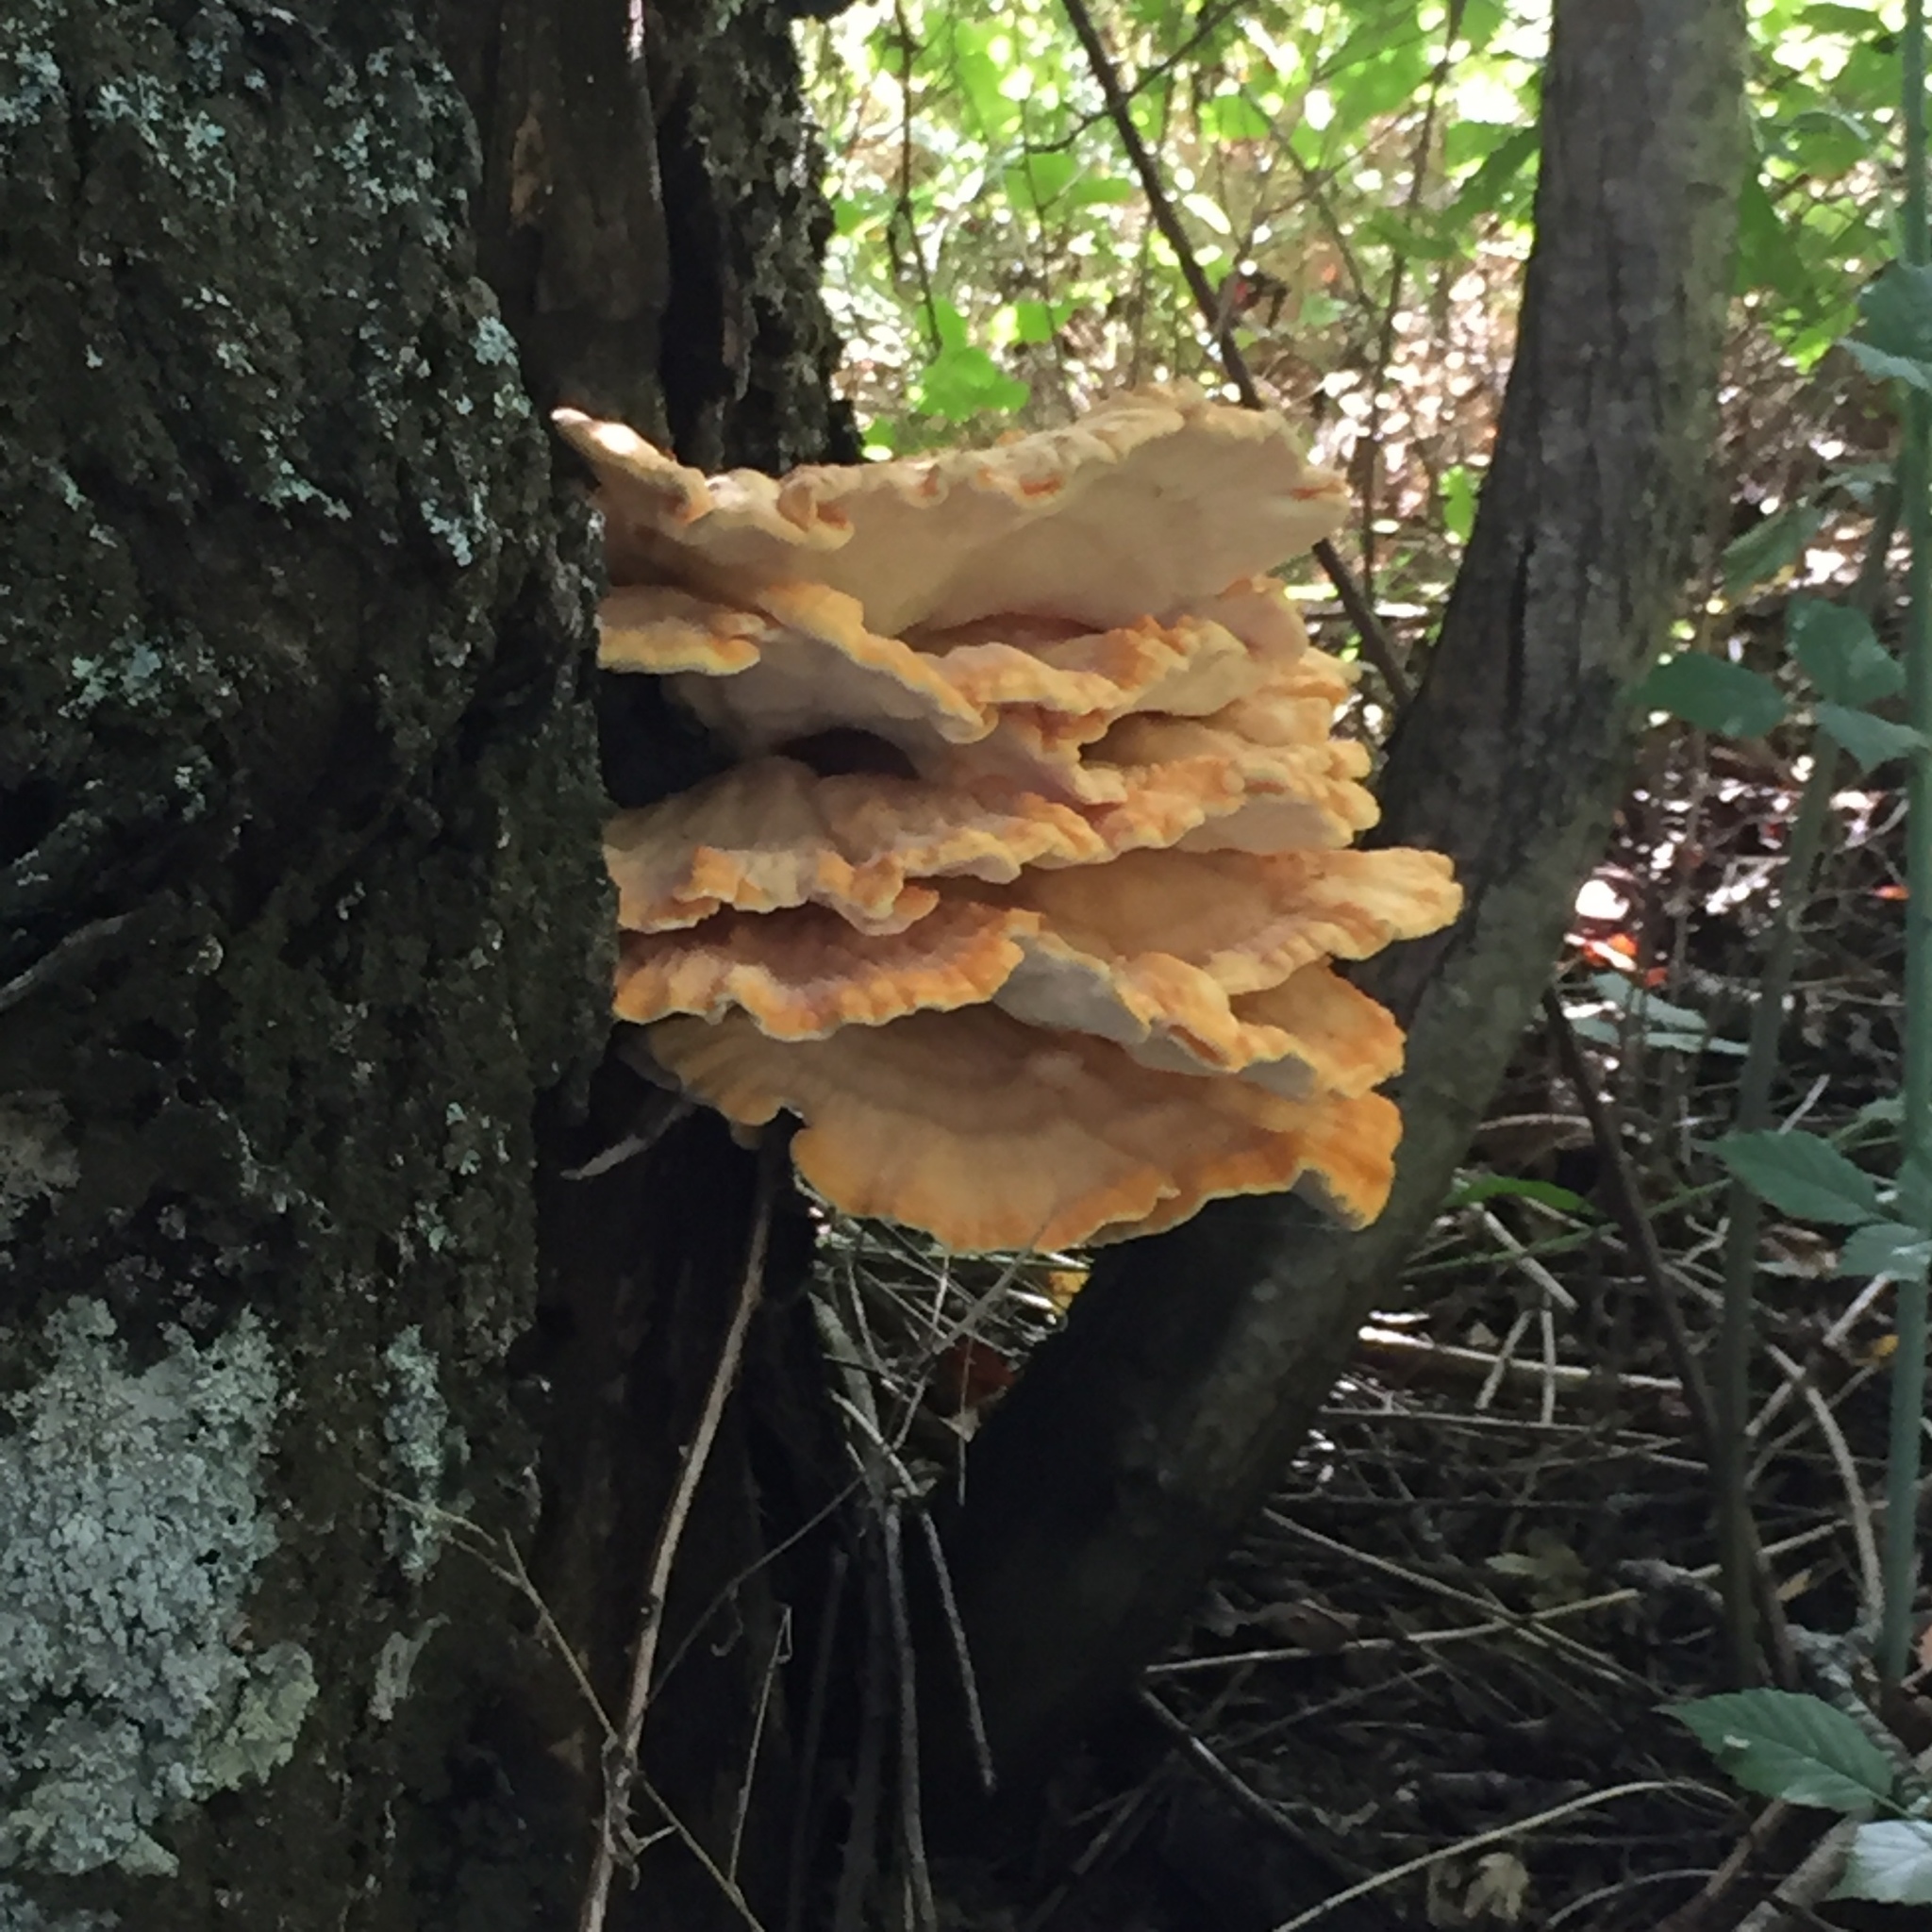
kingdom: Fungi
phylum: Basidiomycota
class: Agaricomycetes
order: Polyporales
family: Laetiporaceae
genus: Laetiporus
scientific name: Laetiporus sulphureus
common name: Chicken of the woods
